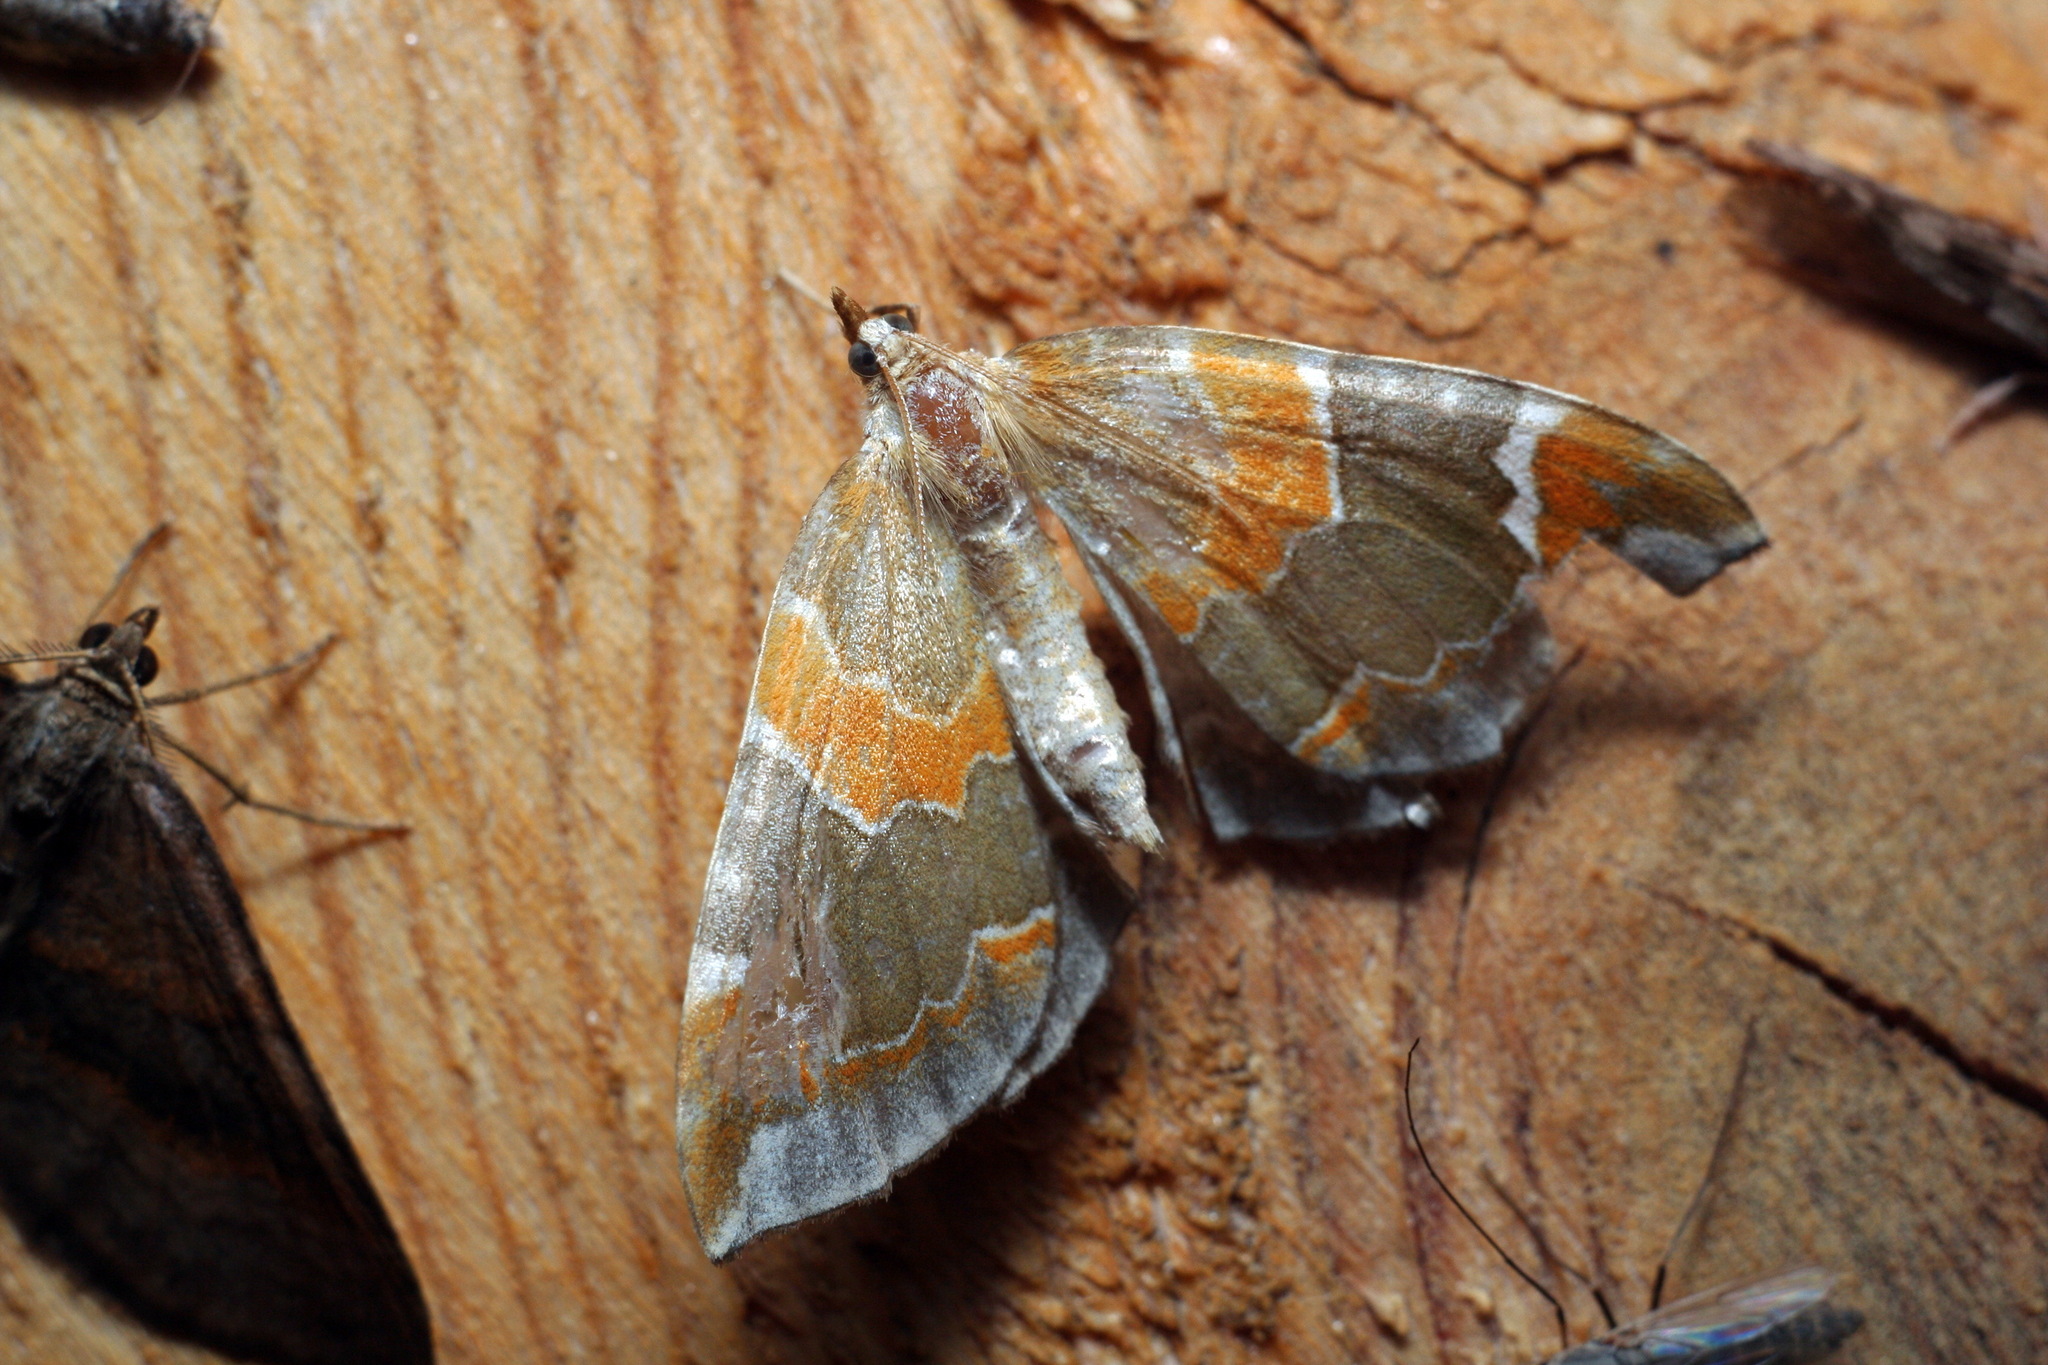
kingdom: Animalia
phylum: Arthropoda
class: Insecta
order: Lepidoptera
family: Geometridae
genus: Eulithis
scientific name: Eulithis pyropata
